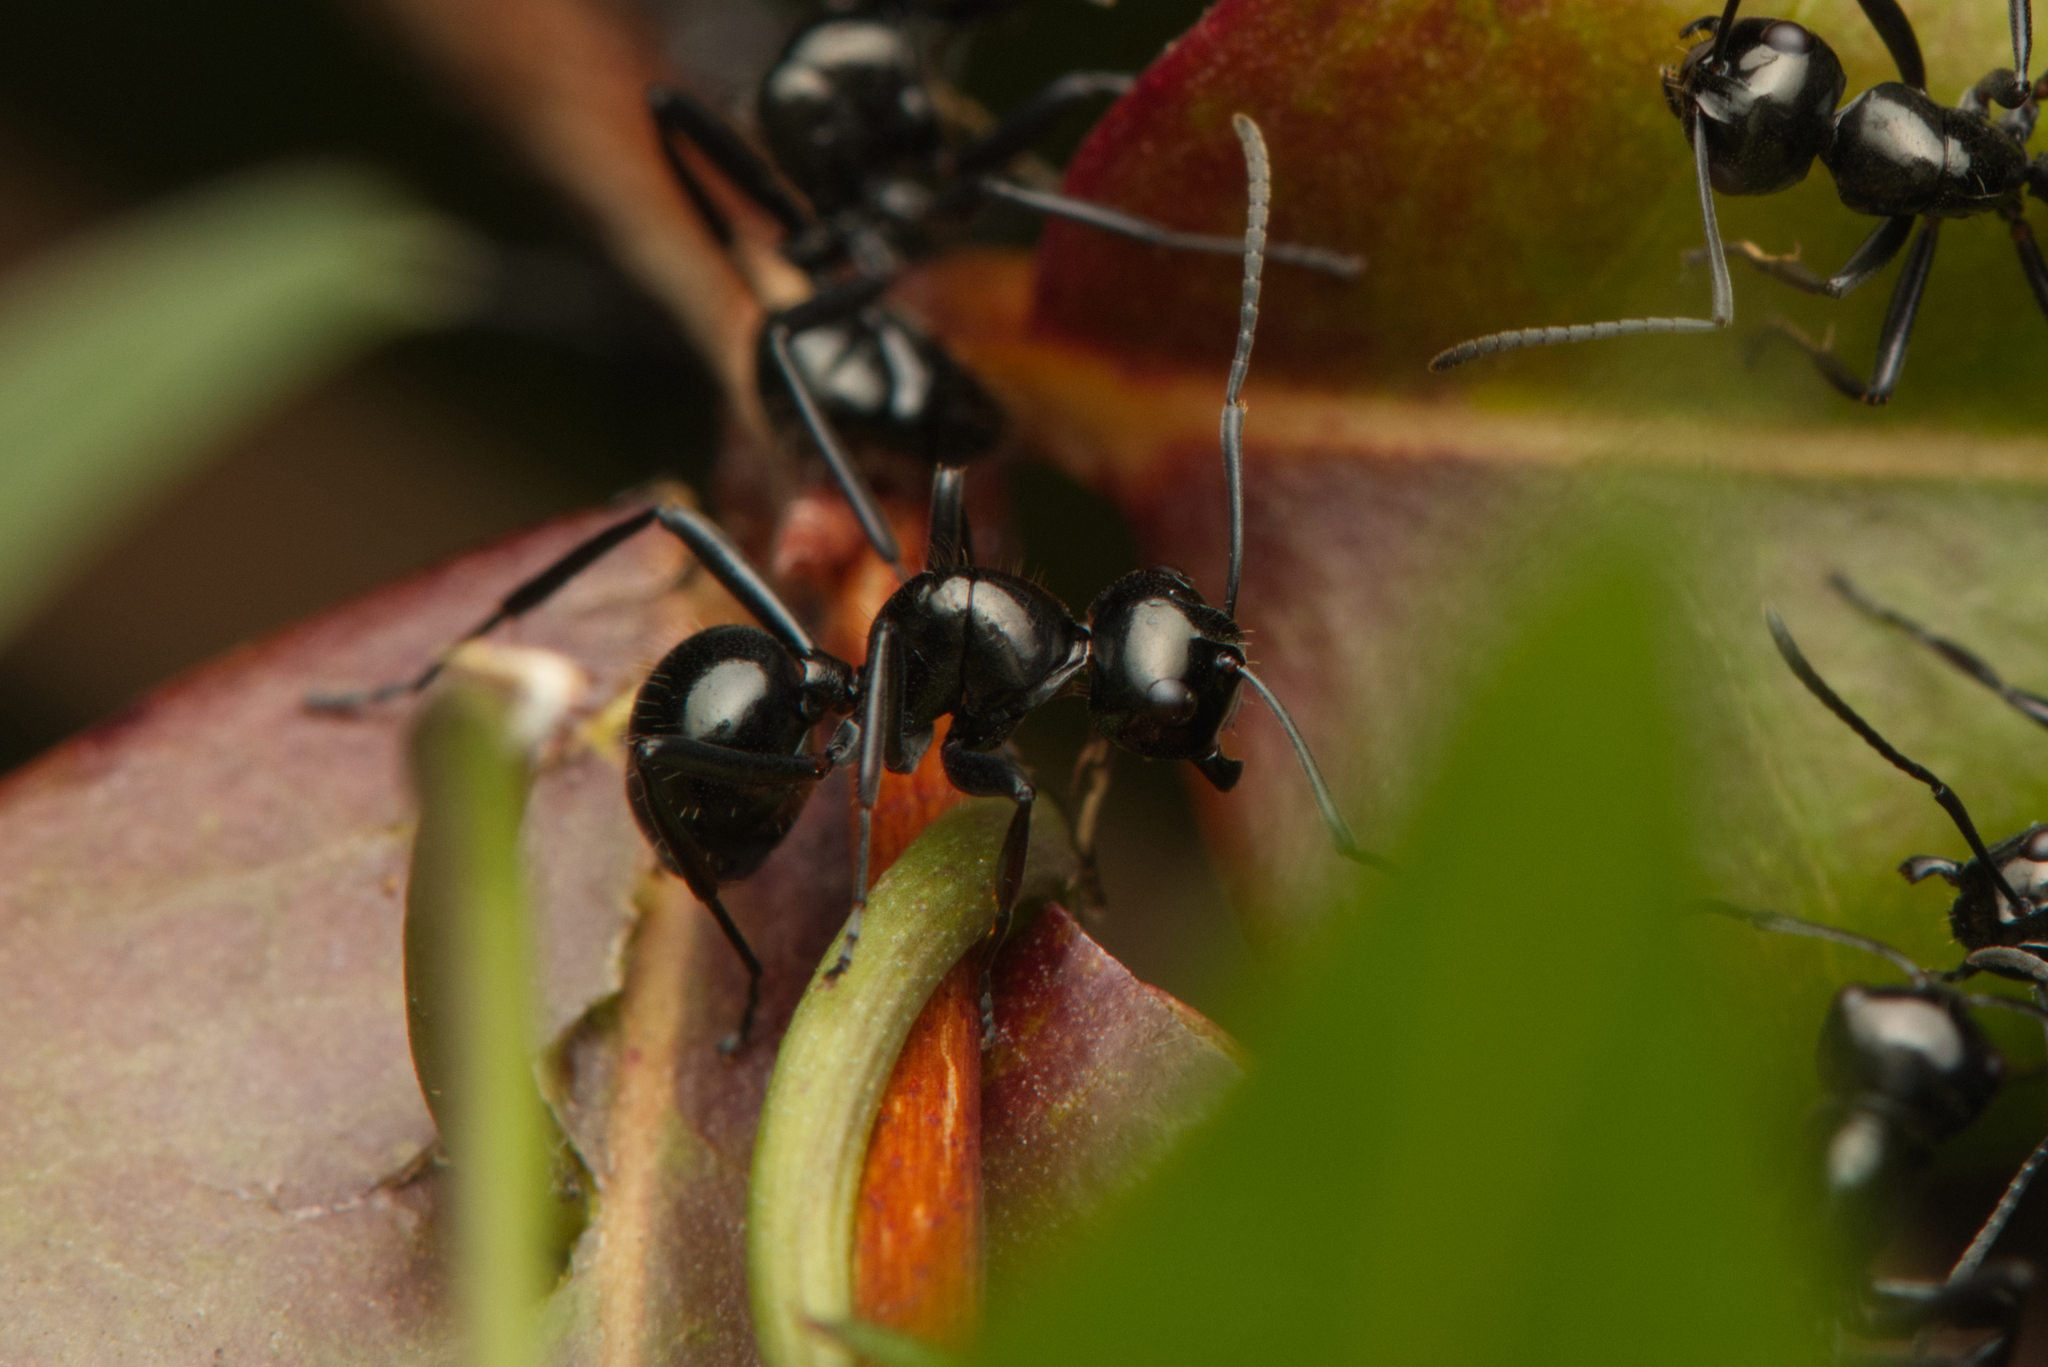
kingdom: Animalia
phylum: Arthropoda
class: Insecta
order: Hymenoptera
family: Formicidae
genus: Polyrhachis
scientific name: Polyrhachis pilosa
